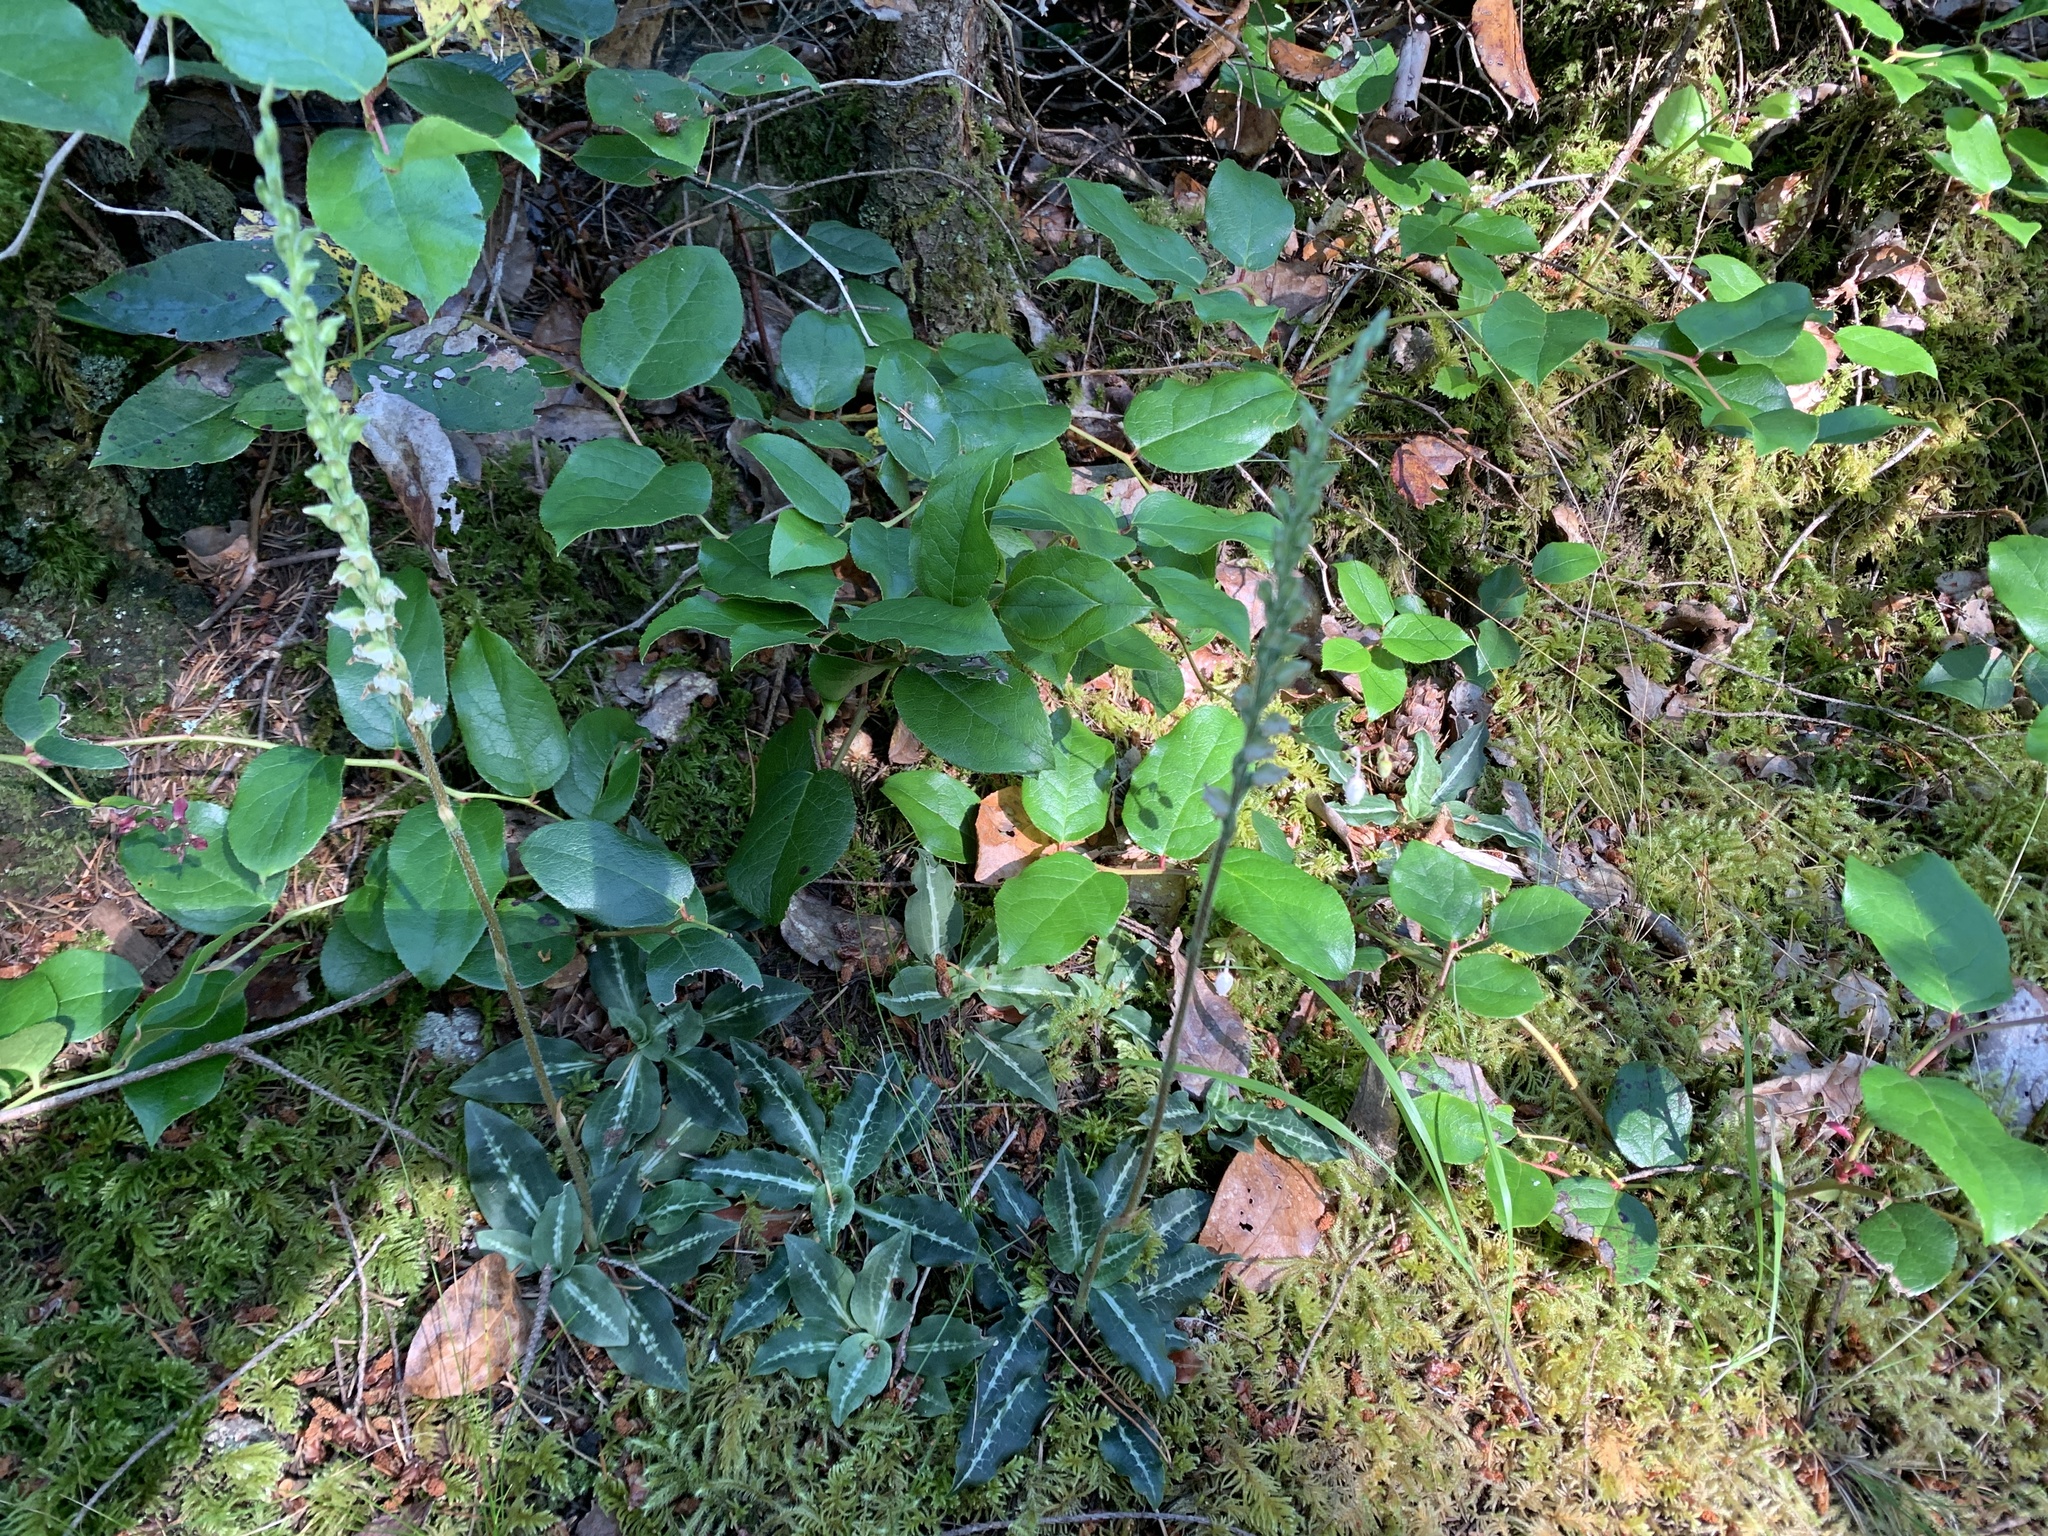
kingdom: Plantae
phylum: Tracheophyta
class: Liliopsida
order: Asparagales
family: Orchidaceae
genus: Goodyera
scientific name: Goodyera oblongifolia
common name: Giant rattlesnake-plantain
